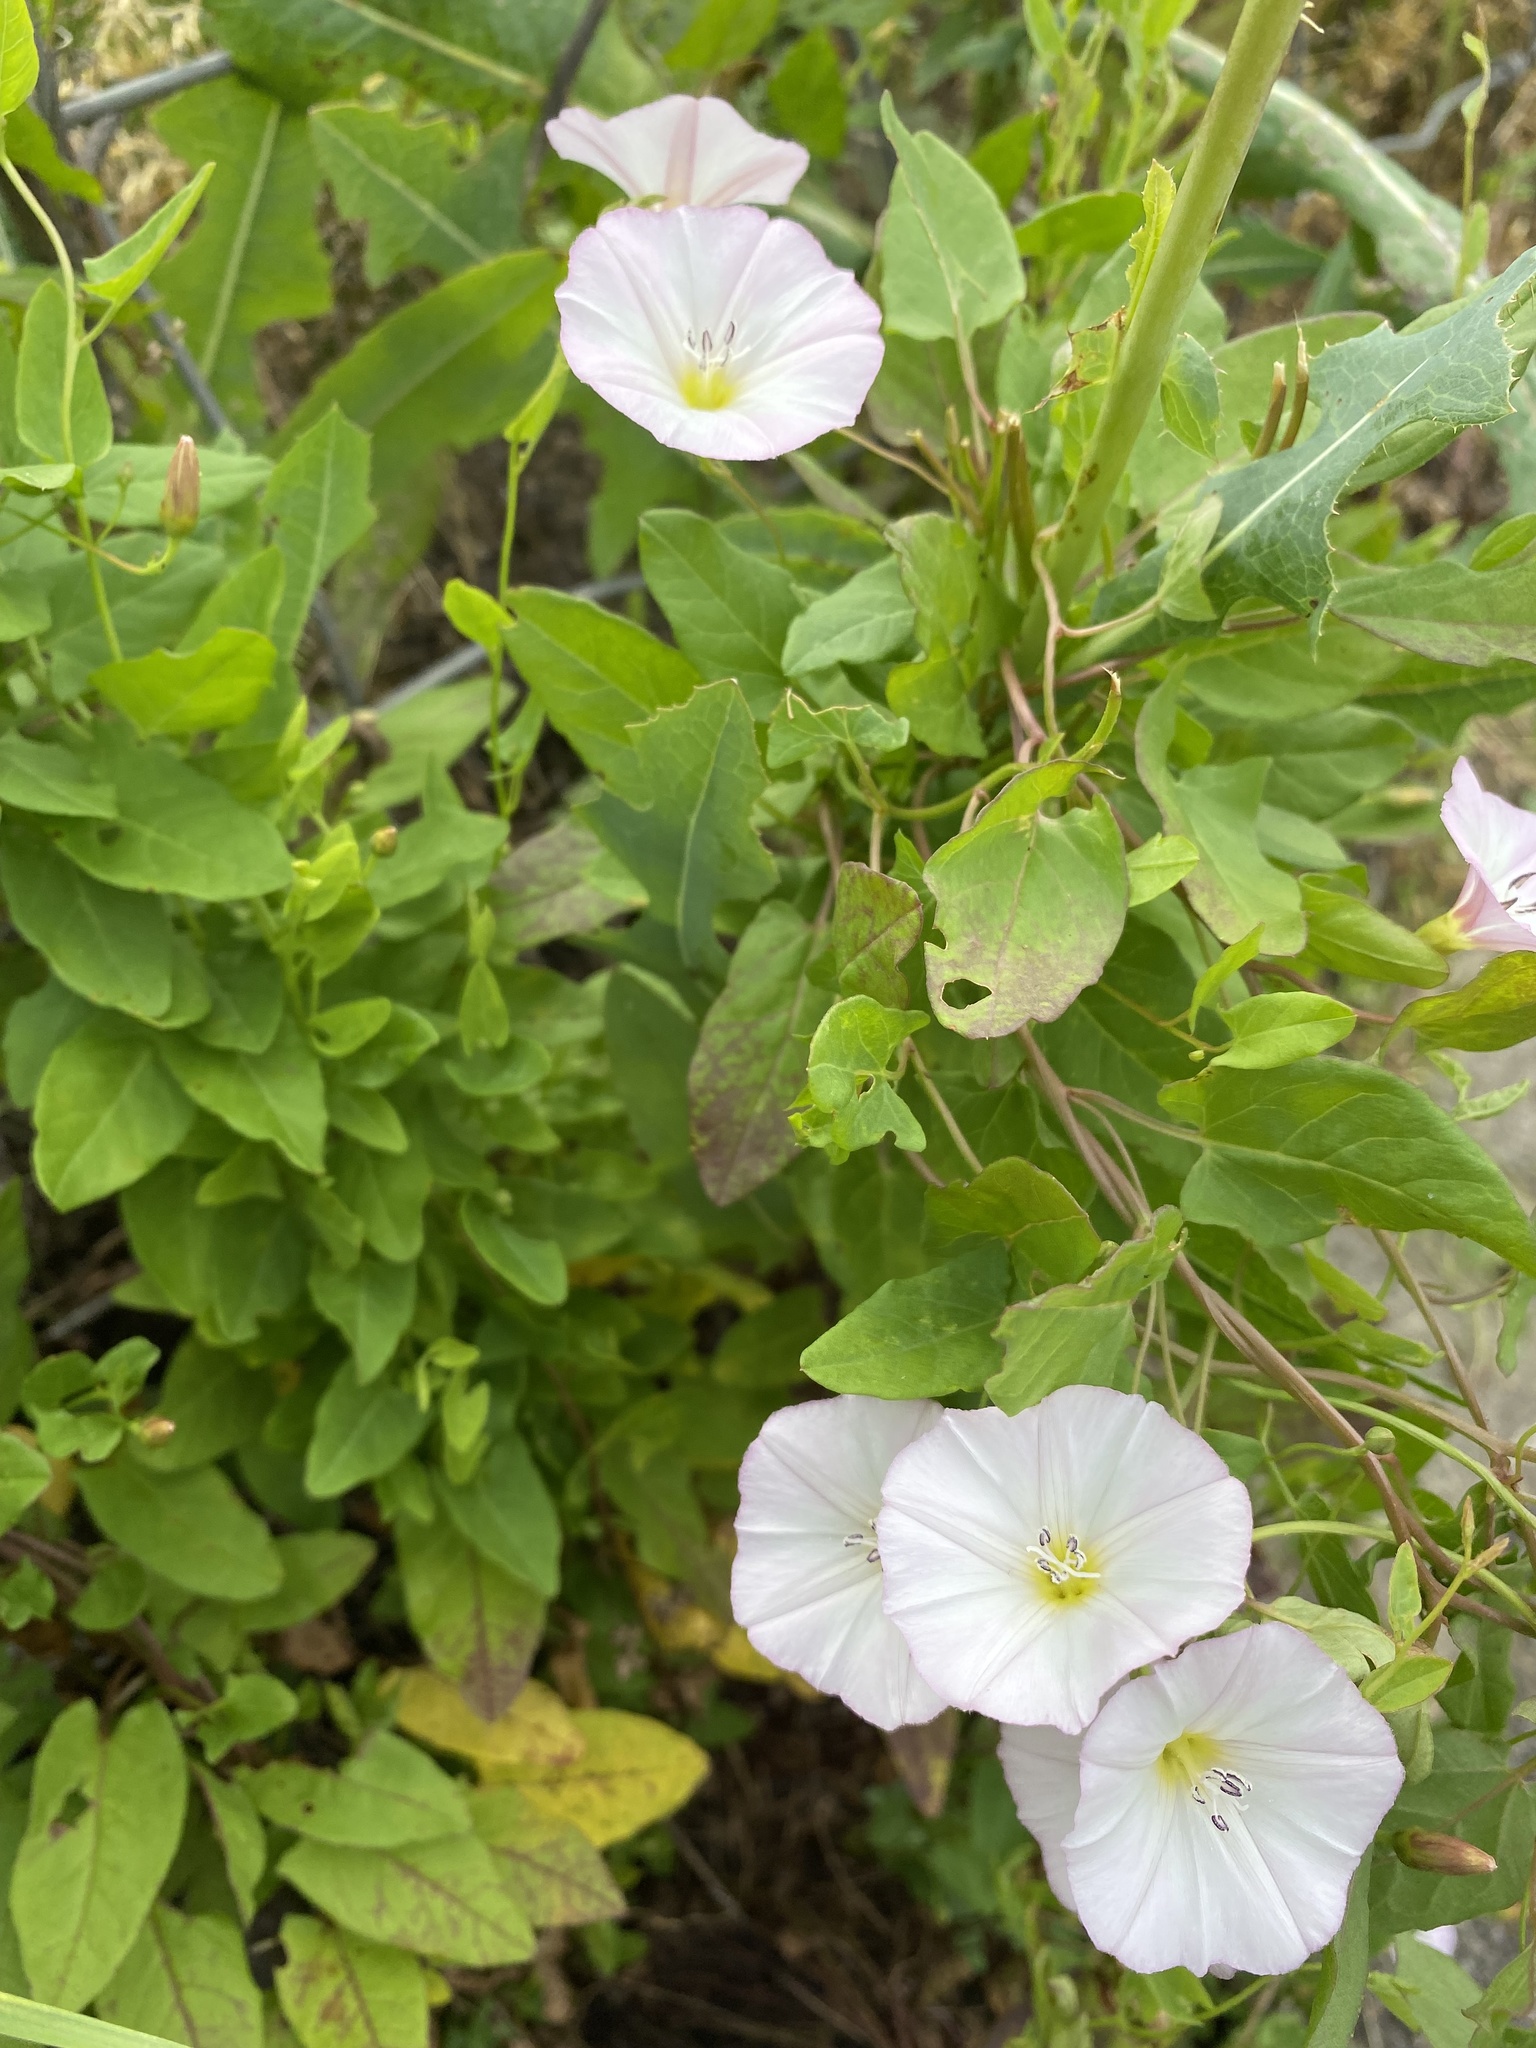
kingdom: Plantae
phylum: Tracheophyta
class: Magnoliopsida
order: Solanales
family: Convolvulaceae
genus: Convolvulus
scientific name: Convolvulus arvensis
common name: Field bindweed
